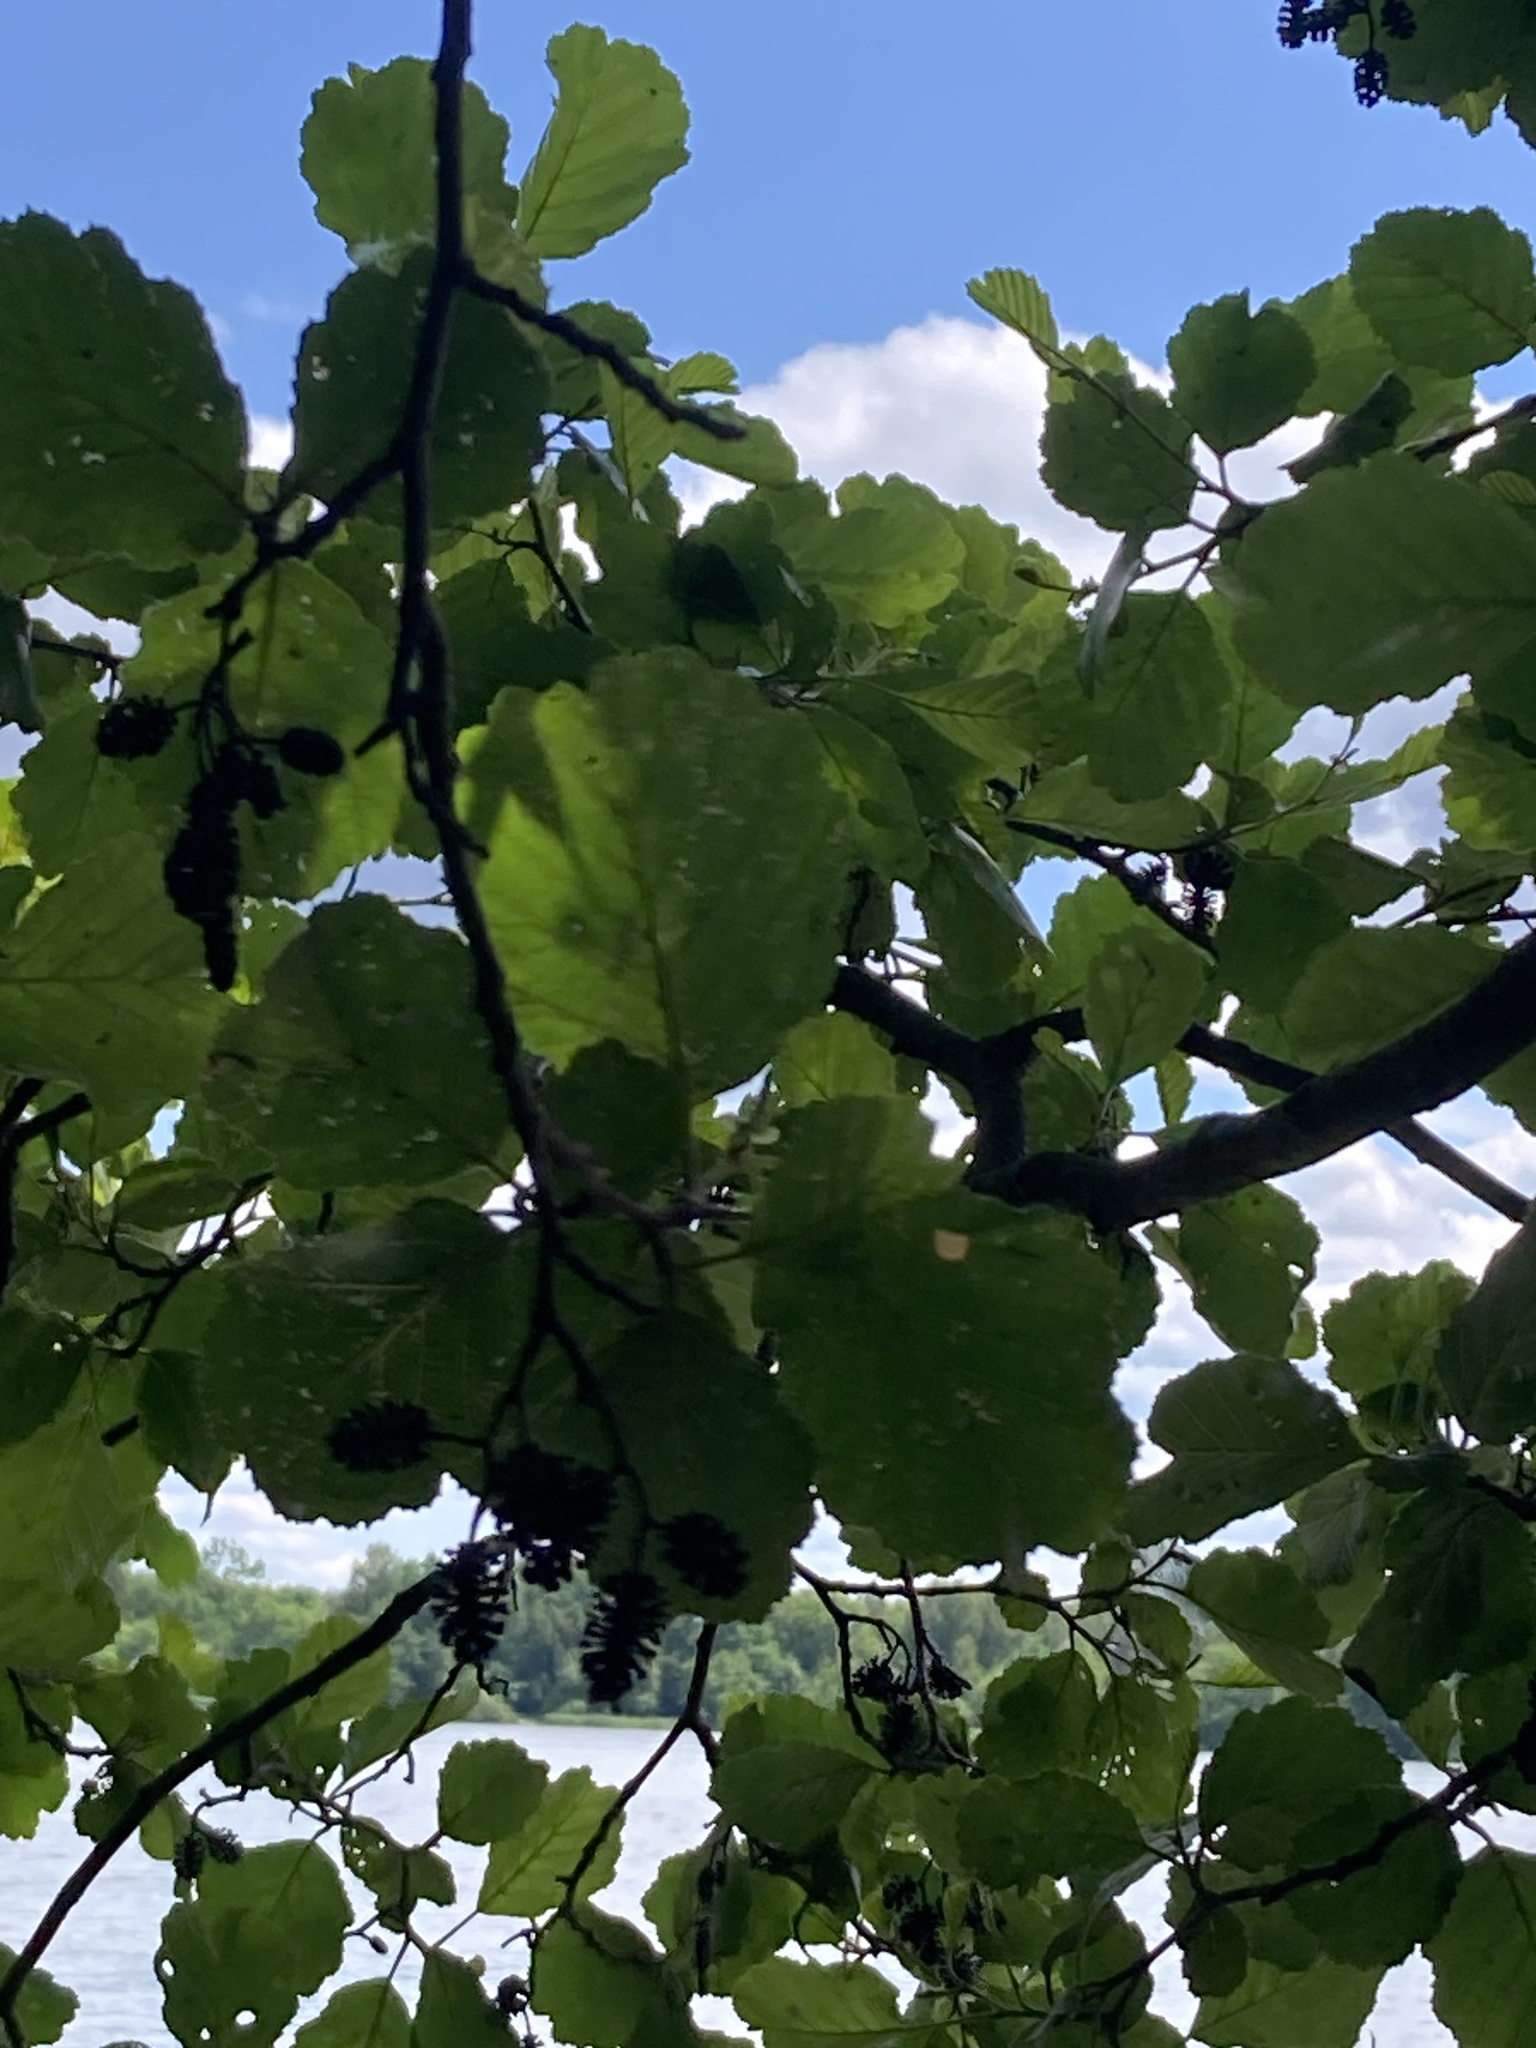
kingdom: Plantae
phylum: Tracheophyta
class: Magnoliopsida
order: Fagales
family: Betulaceae
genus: Alnus
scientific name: Alnus glutinosa
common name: Black alder
